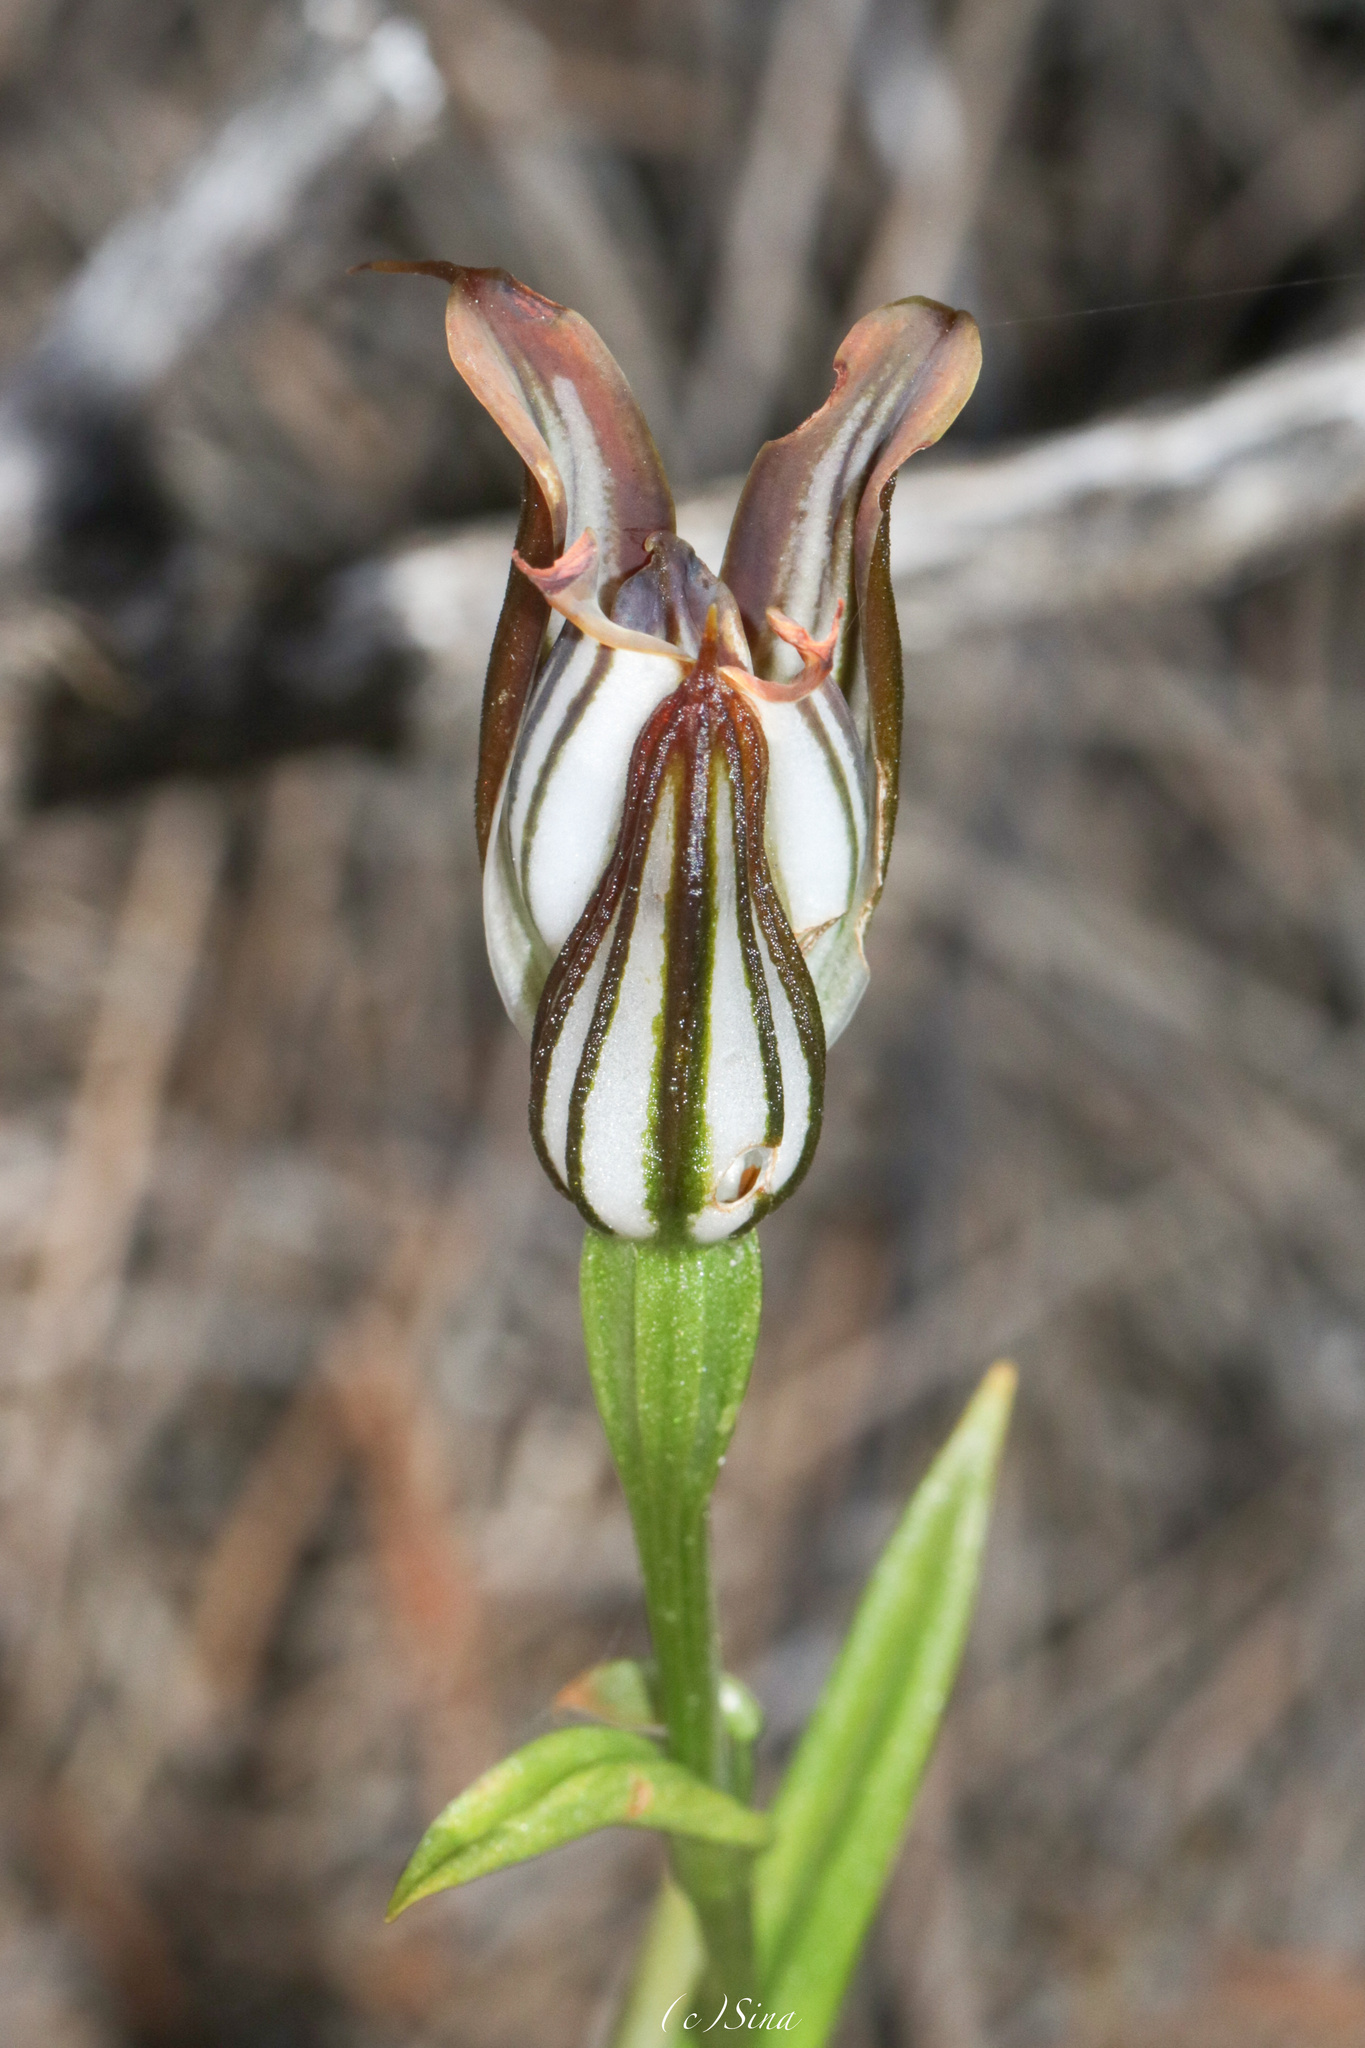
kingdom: Plantae
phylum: Tracheophyta
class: Liliopsida
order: Asparagales
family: Orchidaceae
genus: Pterostylis
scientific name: Pterostylis recurva
